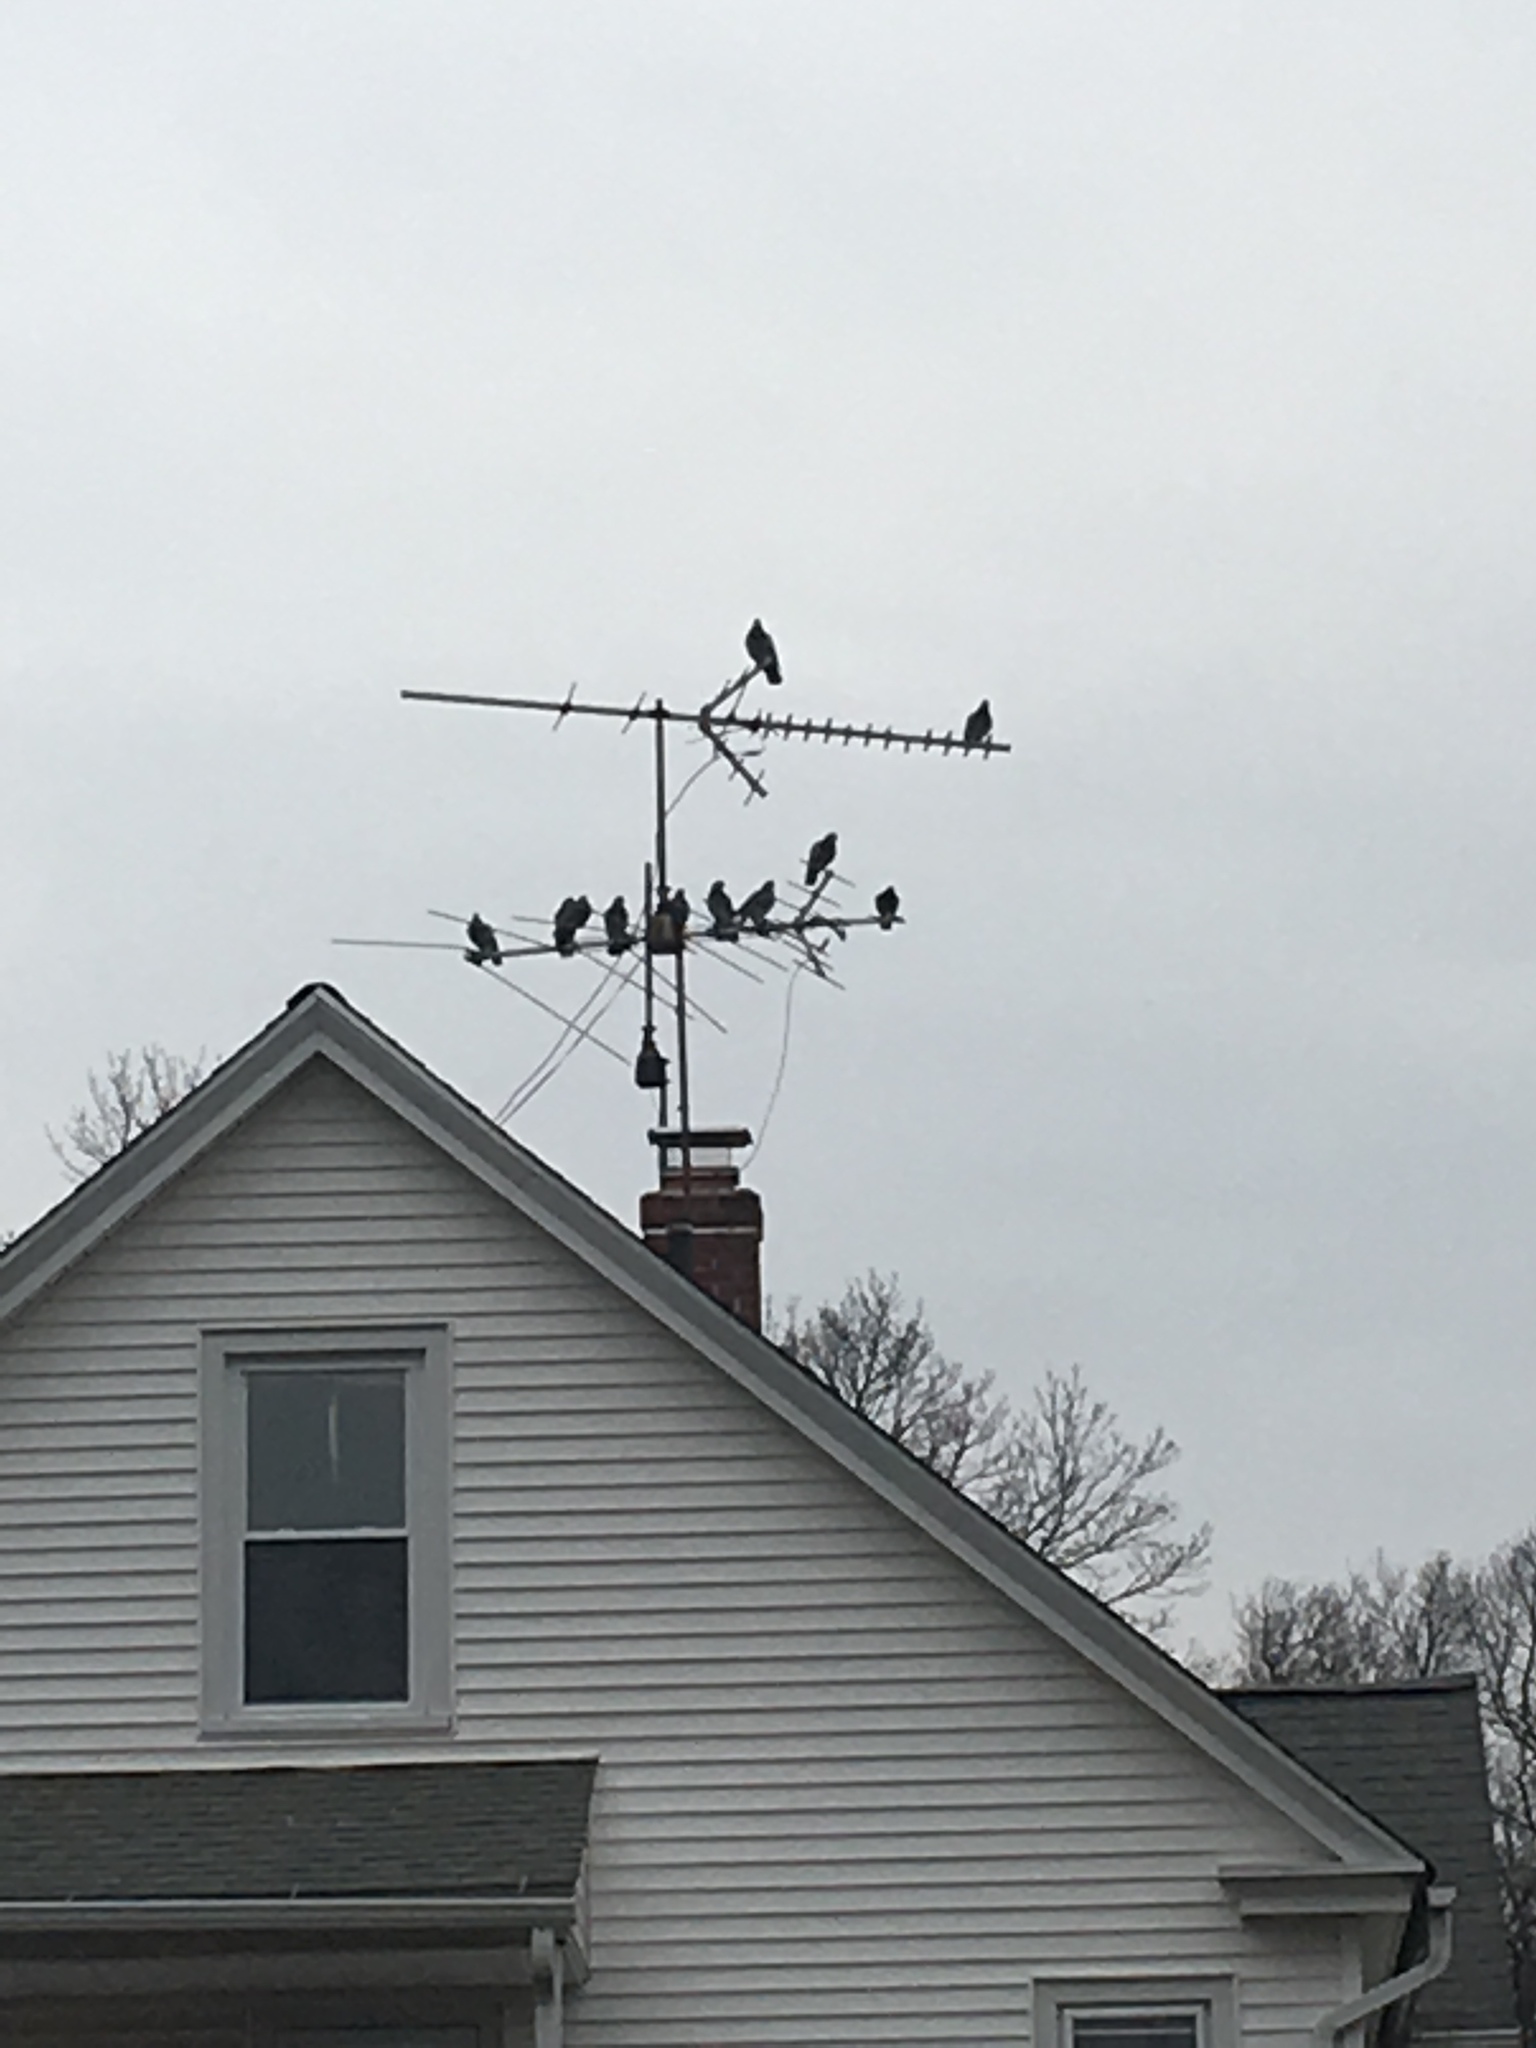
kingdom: Animalia
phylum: Chordata
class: Aves
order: Columbiformes
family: Columbidae
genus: Columba
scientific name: Columba livia
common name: Rock pigeon
